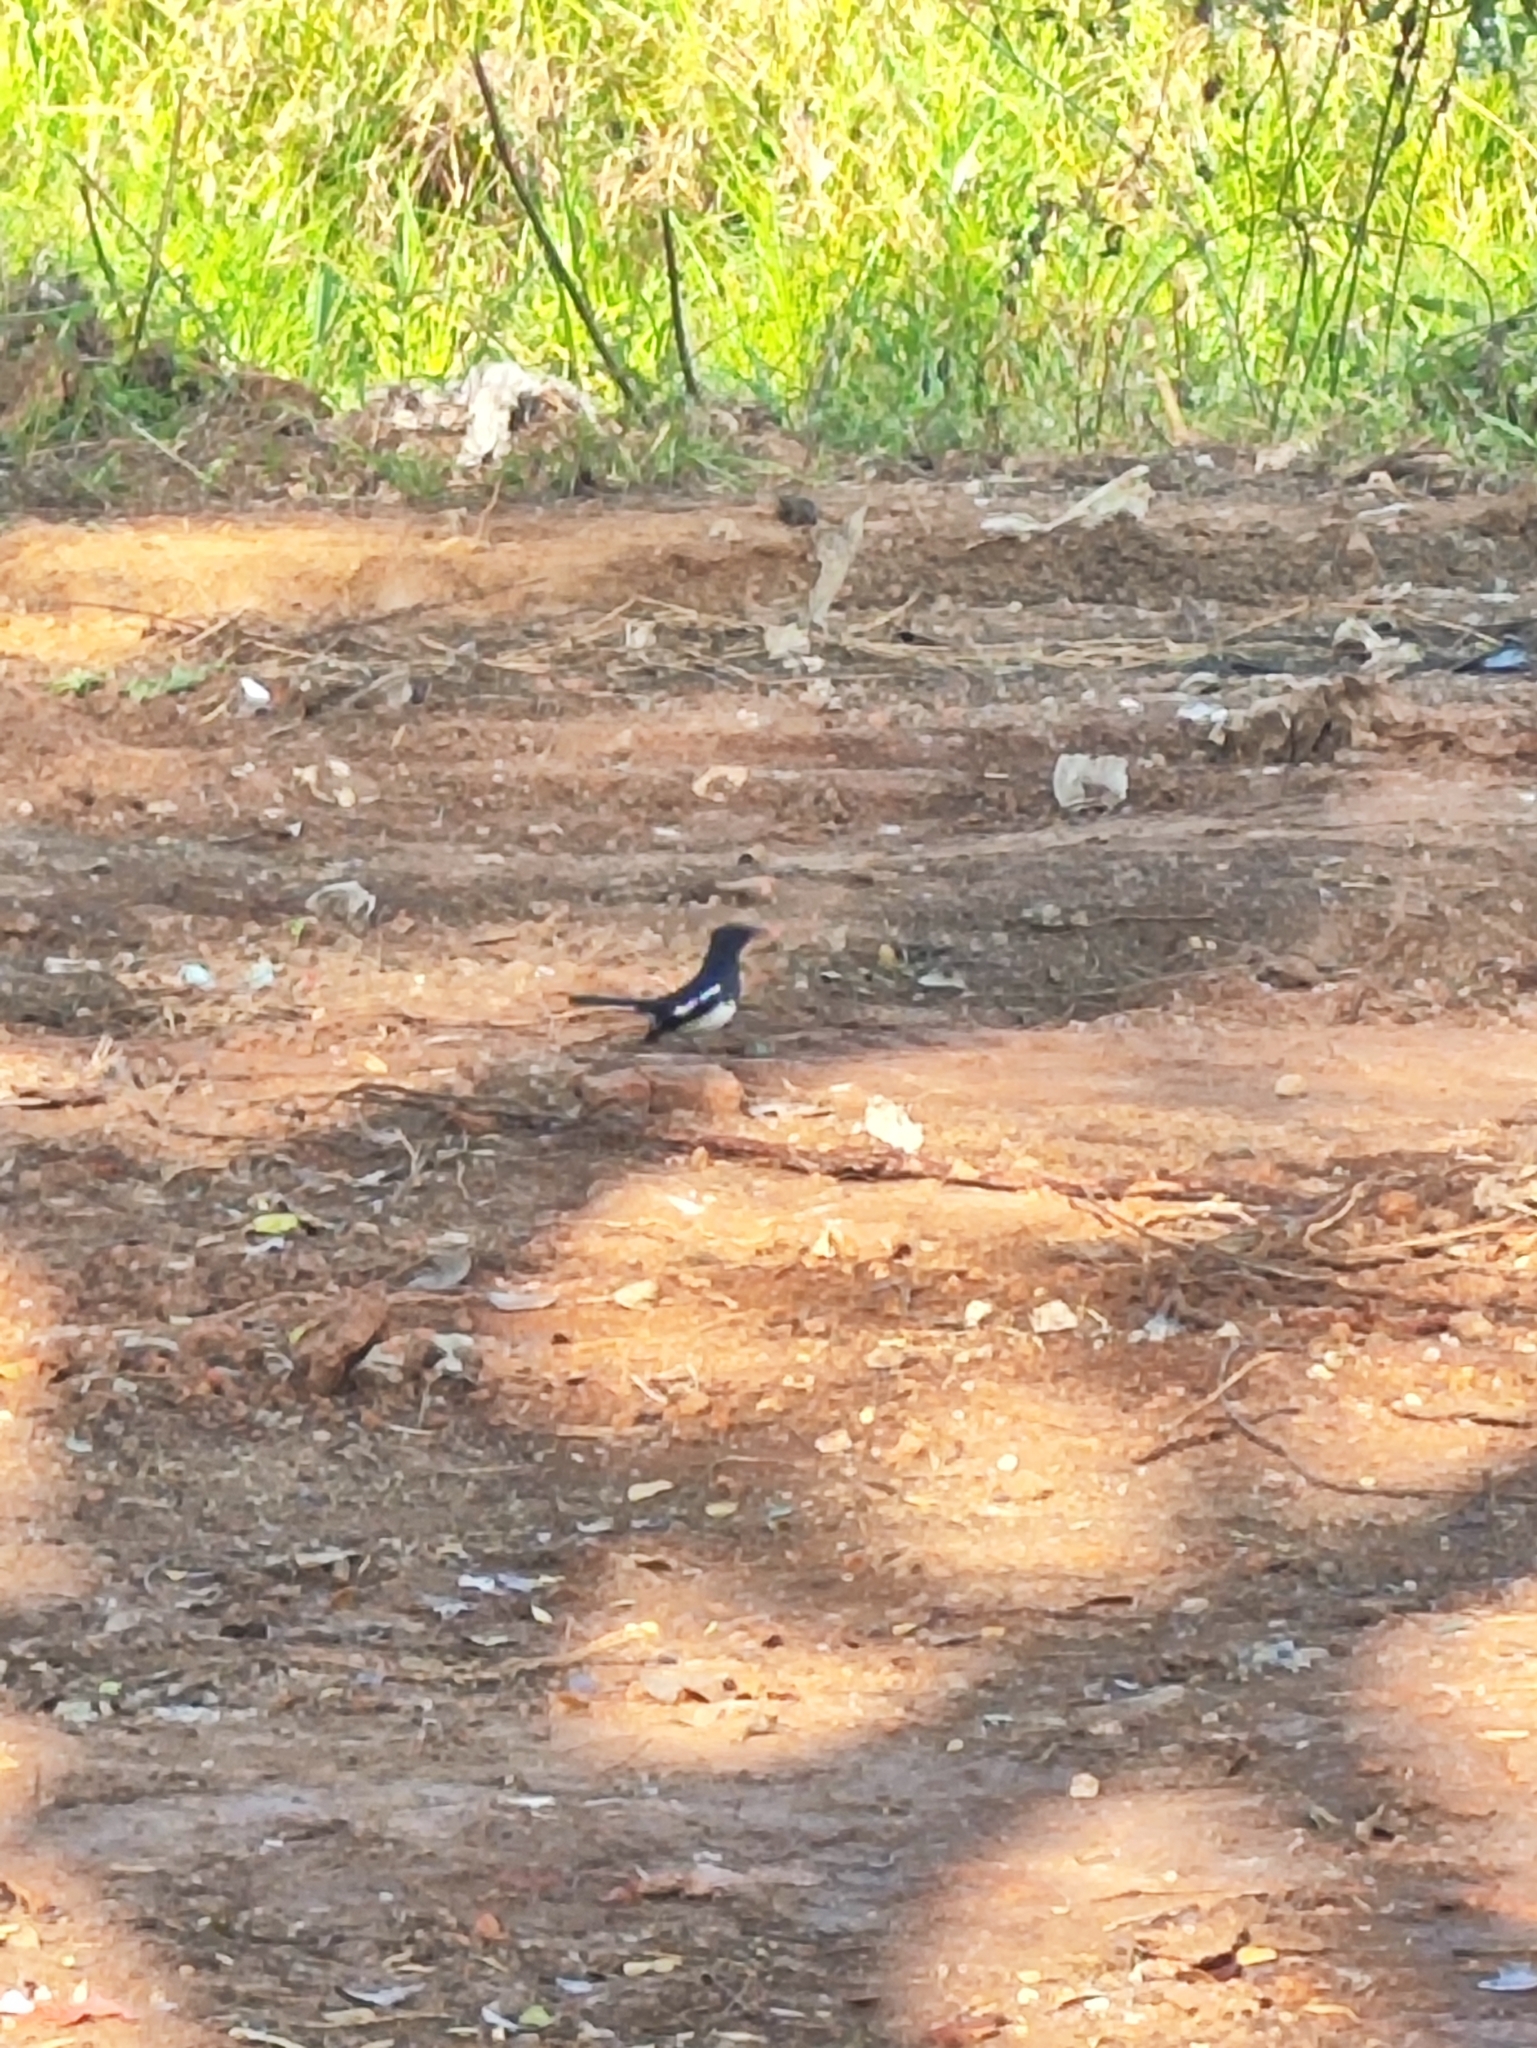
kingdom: Animalia
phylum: Chordata
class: Aves
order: Passeriformes
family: Muscicapidae
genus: Copsychus
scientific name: Copsychus saularis
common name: Oriental magpie-robin
